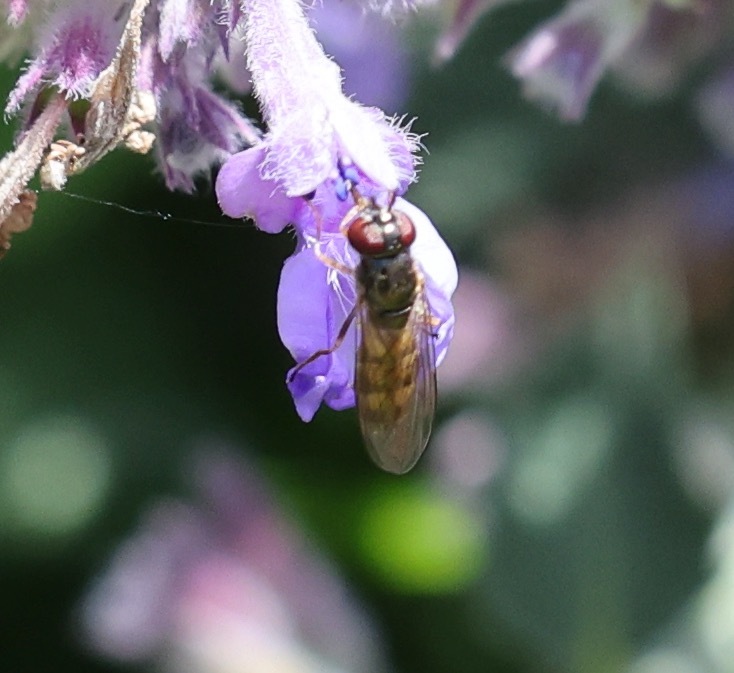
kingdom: Animalia
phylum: Arthropoda
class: Insecta
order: Diptera
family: Syrphidae
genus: Melanostoma
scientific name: Melanostoma
